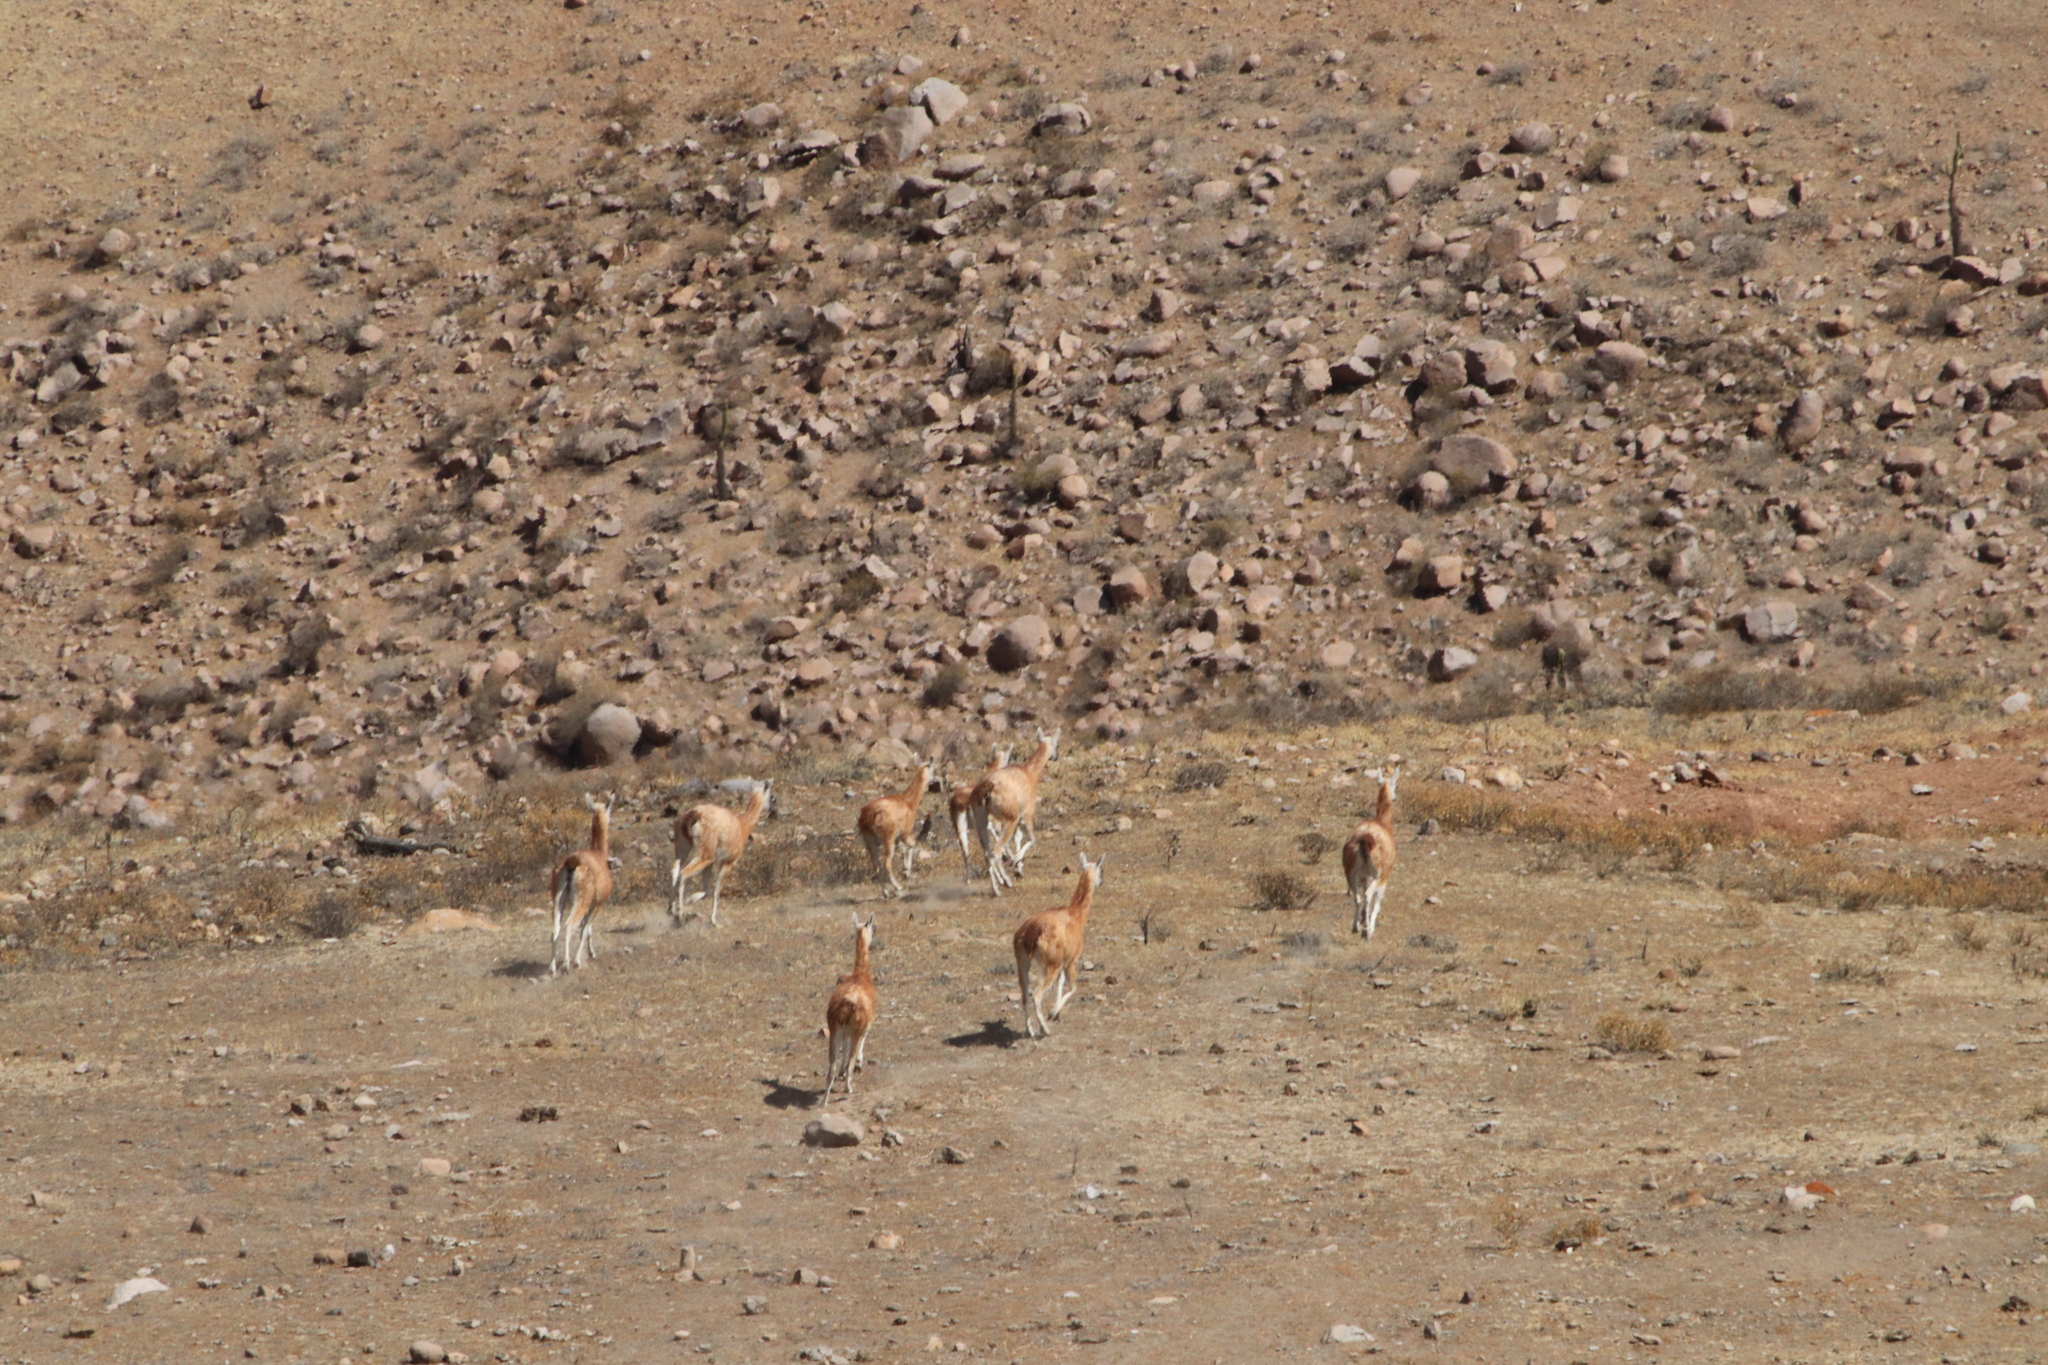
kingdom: Animalia
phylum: Chordata
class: Mammalia
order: Artiodactyla
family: Camelidae
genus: Lama
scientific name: Lama glama
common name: Llama
